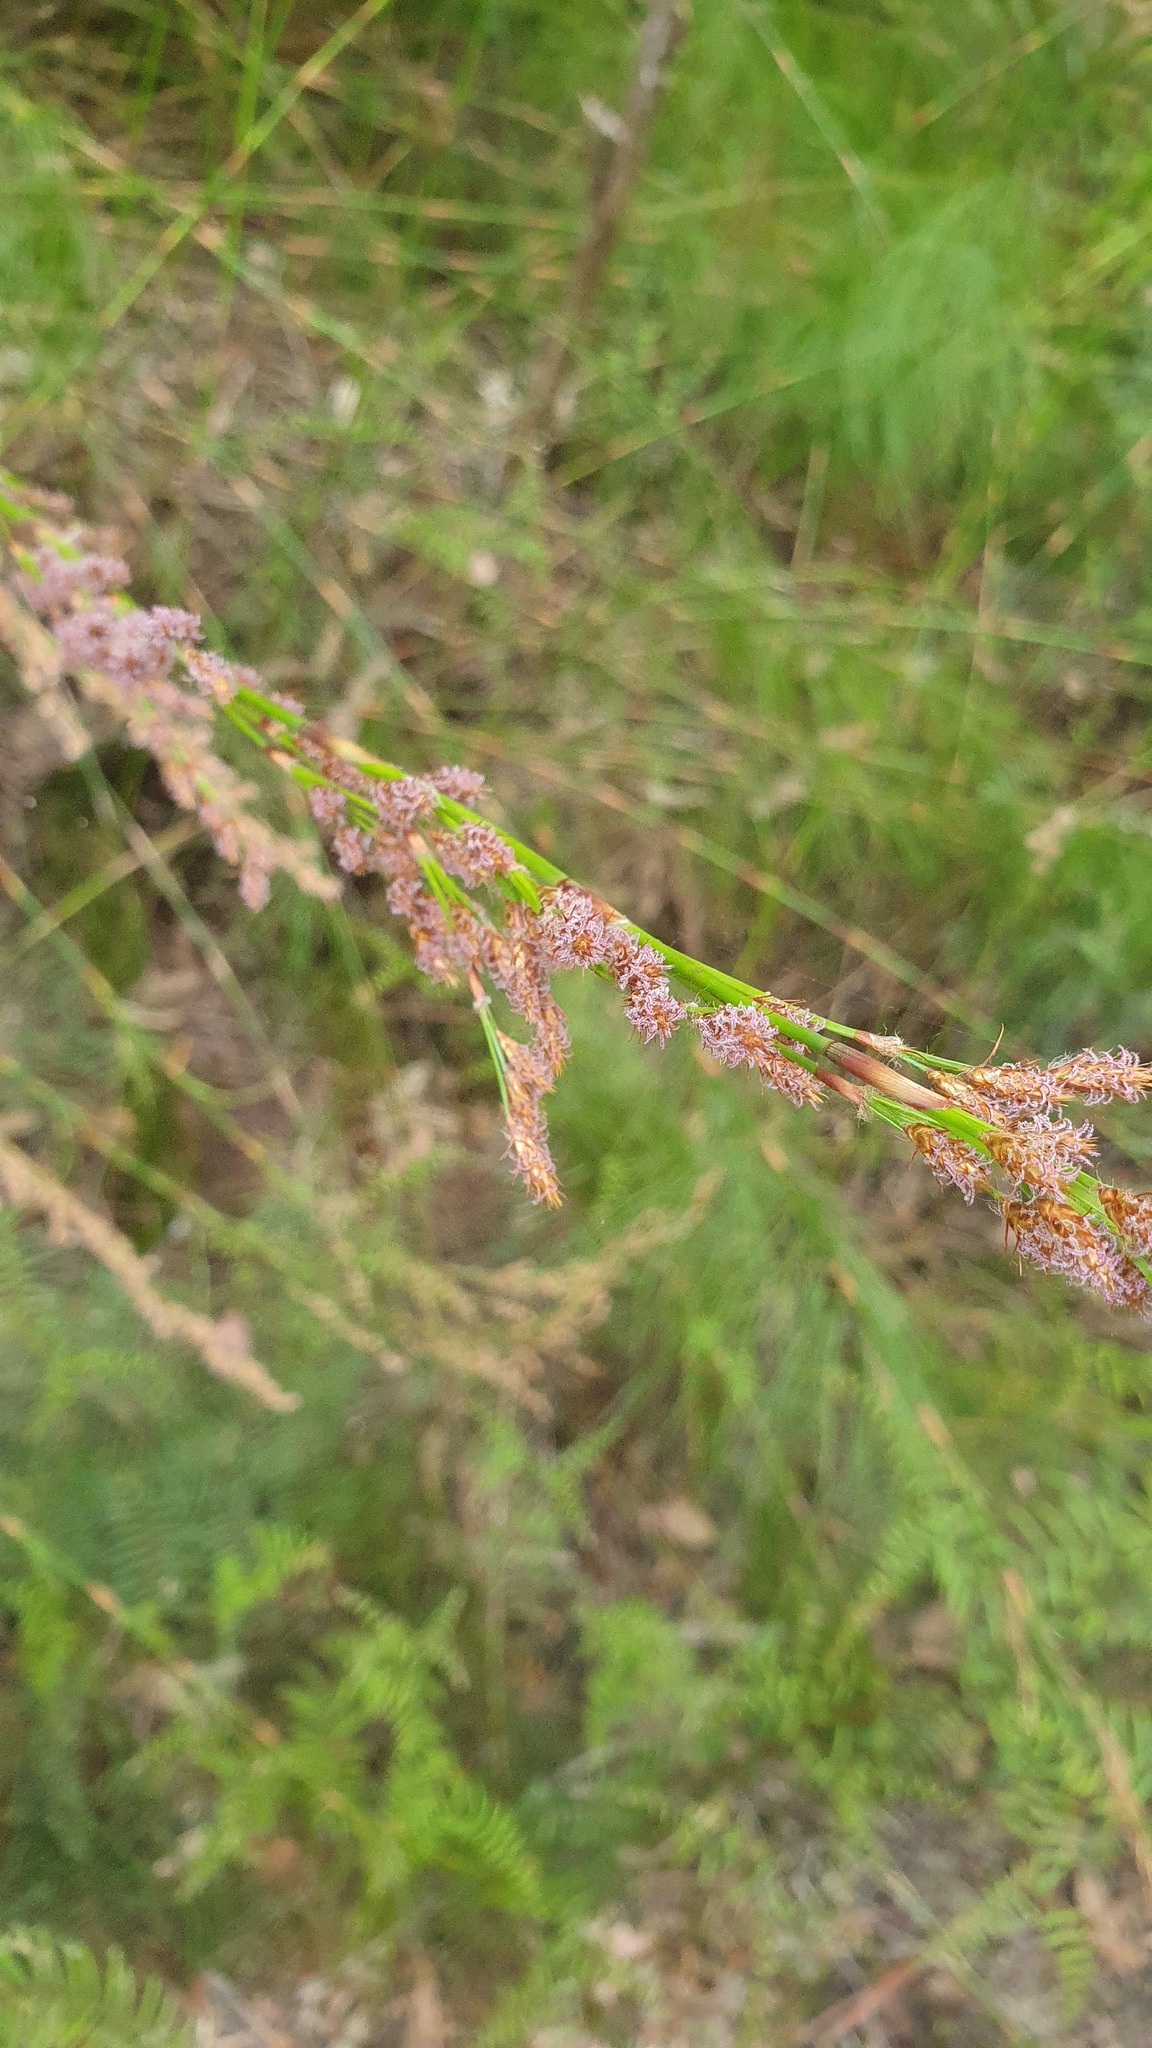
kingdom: Plantae
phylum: Tracheophyta
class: Liliopsida
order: Poales
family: Restionaceae
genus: Baloskion
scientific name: Baloskion tetraphyllum
